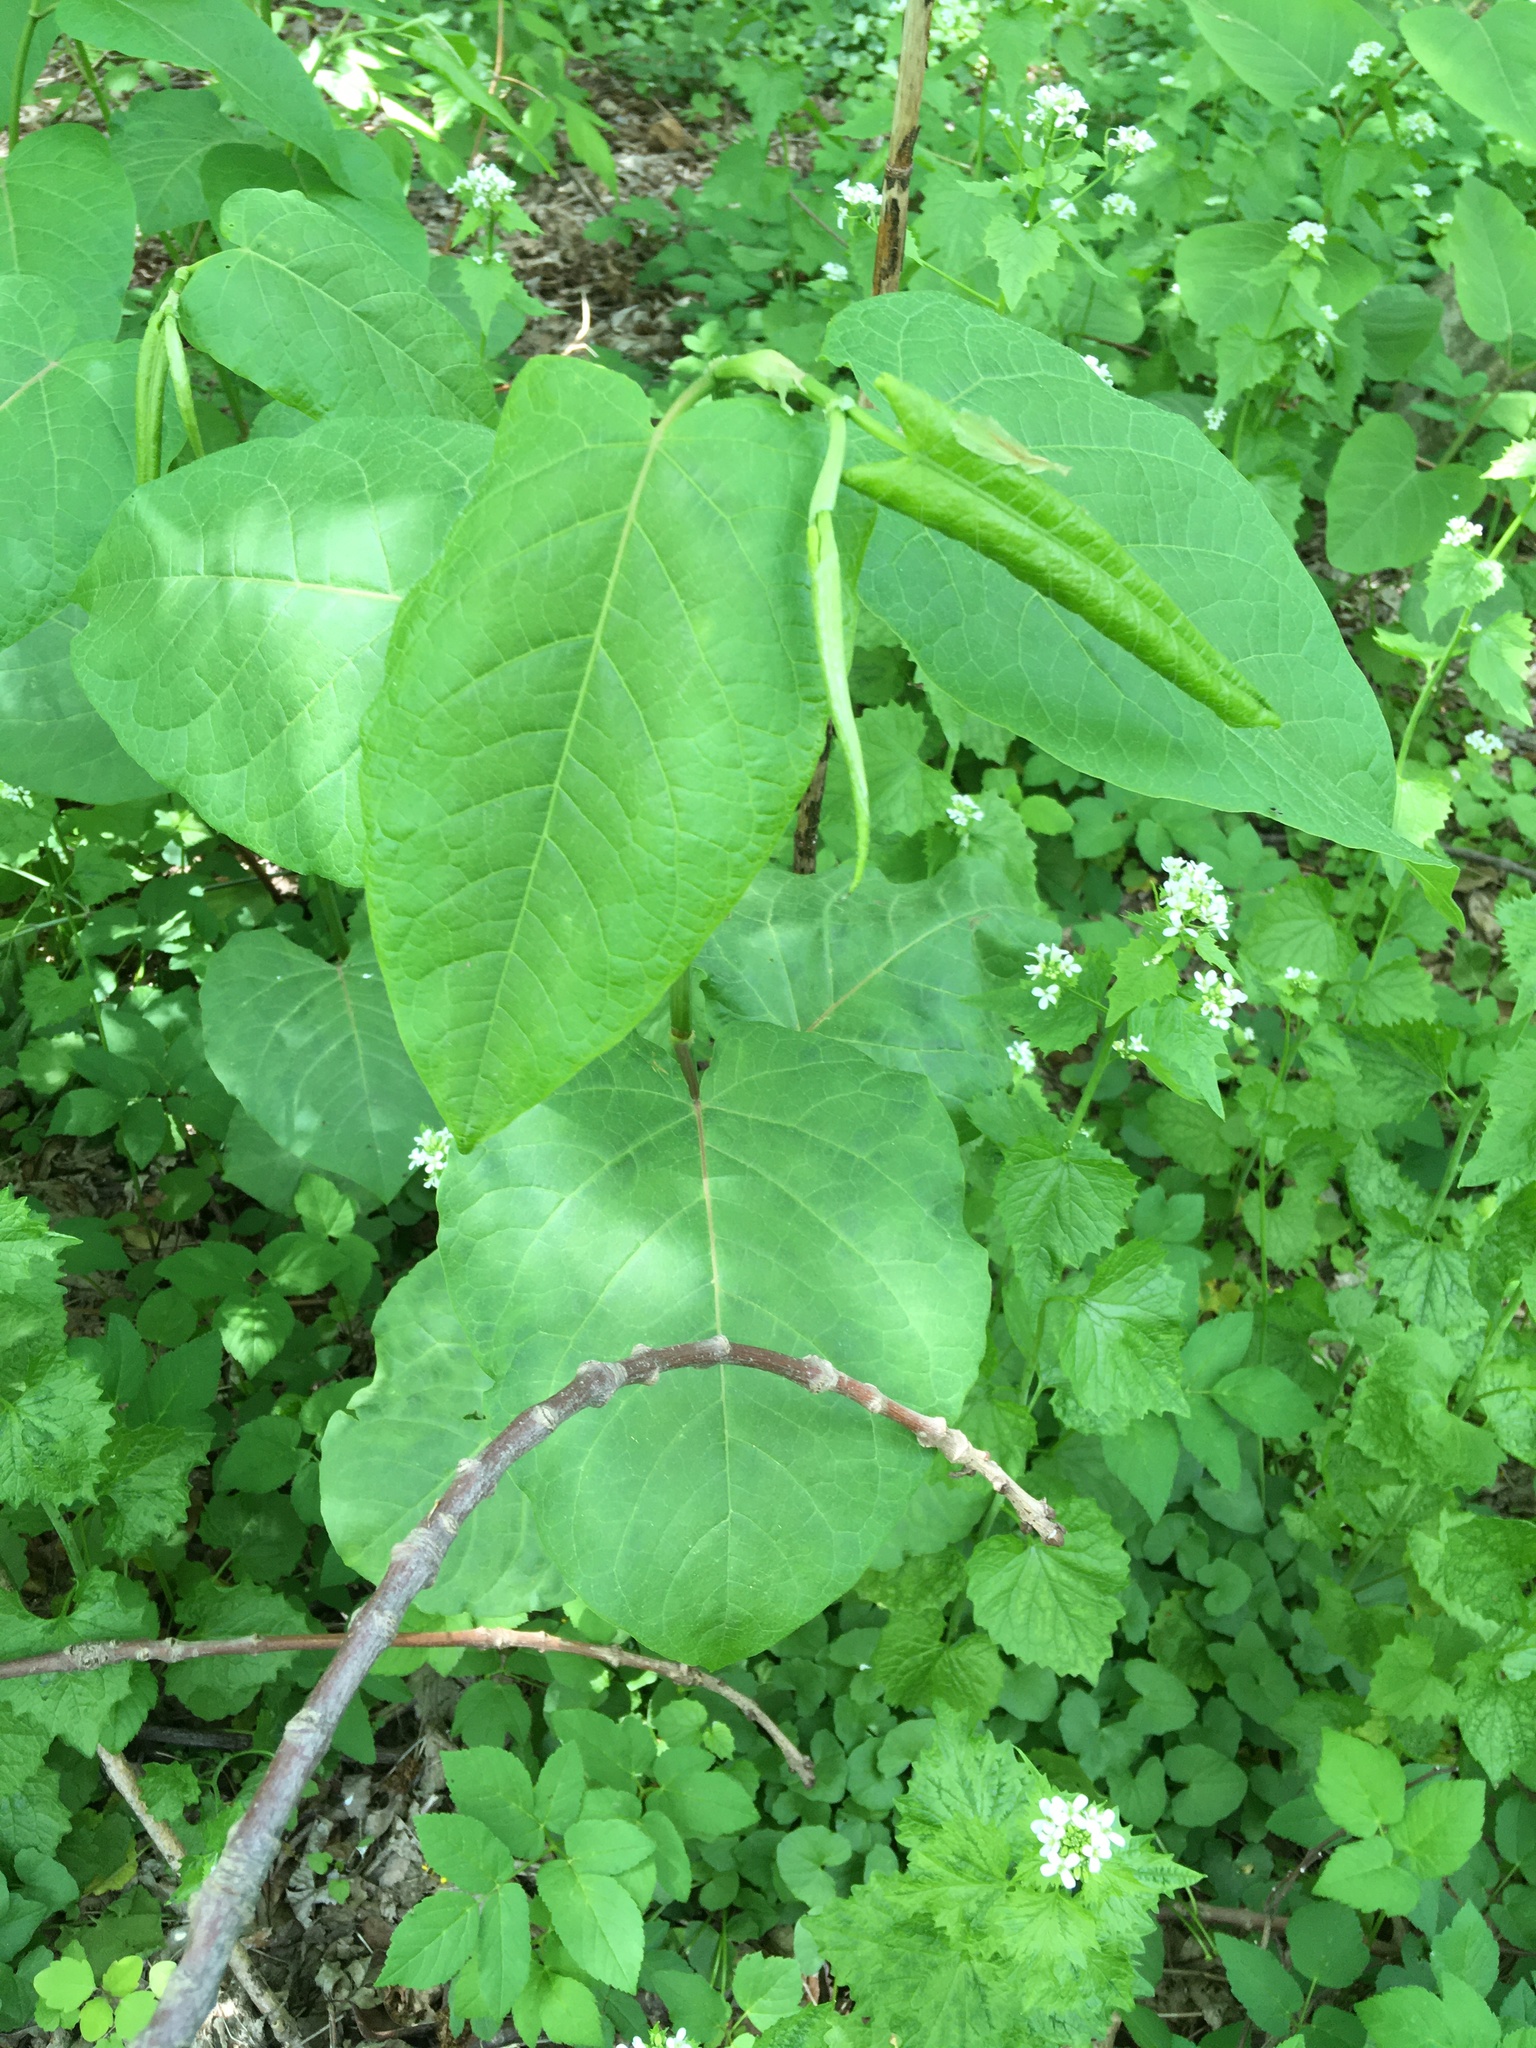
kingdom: Plantae
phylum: Tracheophyta
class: Magnoliopsida
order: Caryophyllales
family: Polygonaceae
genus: Reynoutria
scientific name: Reynoutria sachalinensis
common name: Giant knotweed
